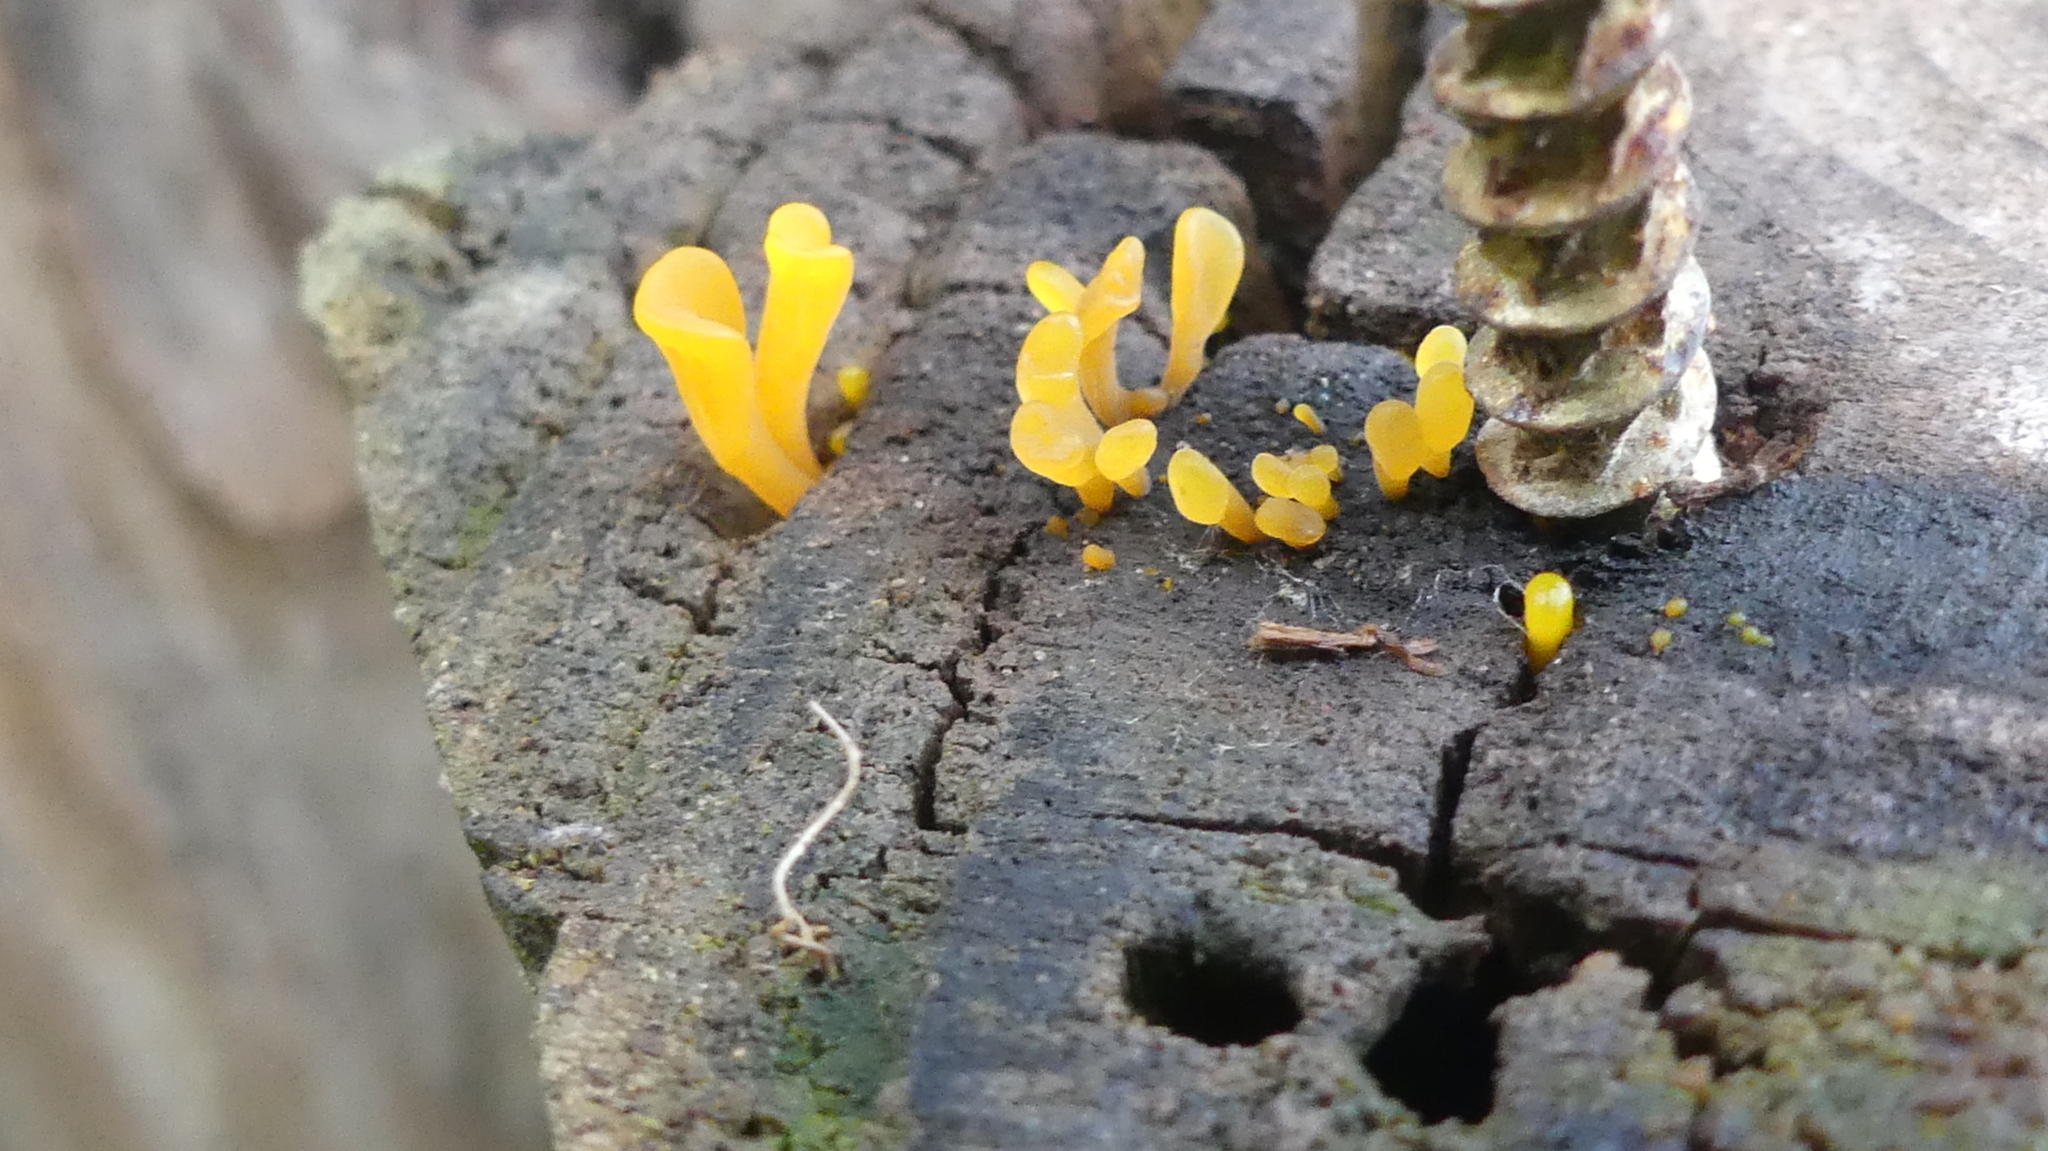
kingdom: Fungi
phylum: Basidiomycota
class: Dacrymycetes
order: Dacrymycetales
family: Dacrymycetaceae
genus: Dacrymyces
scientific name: Dacrymyces spathularius
